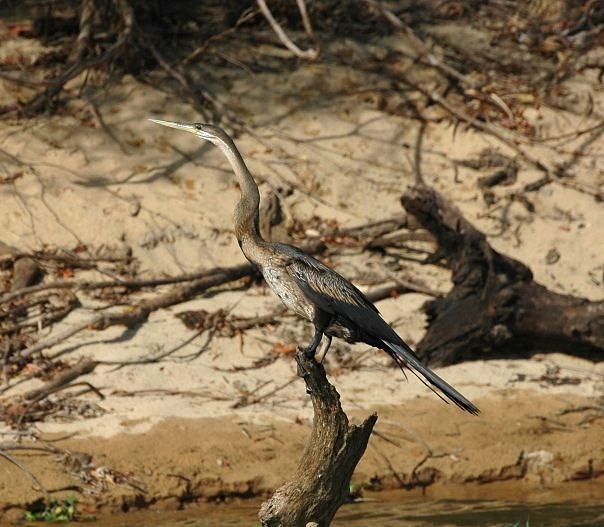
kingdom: Animalia
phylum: Chordata
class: Aves
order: Suliformes
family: Anhingidae
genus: Anhinga
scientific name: Anhinga rufa
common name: African darter
